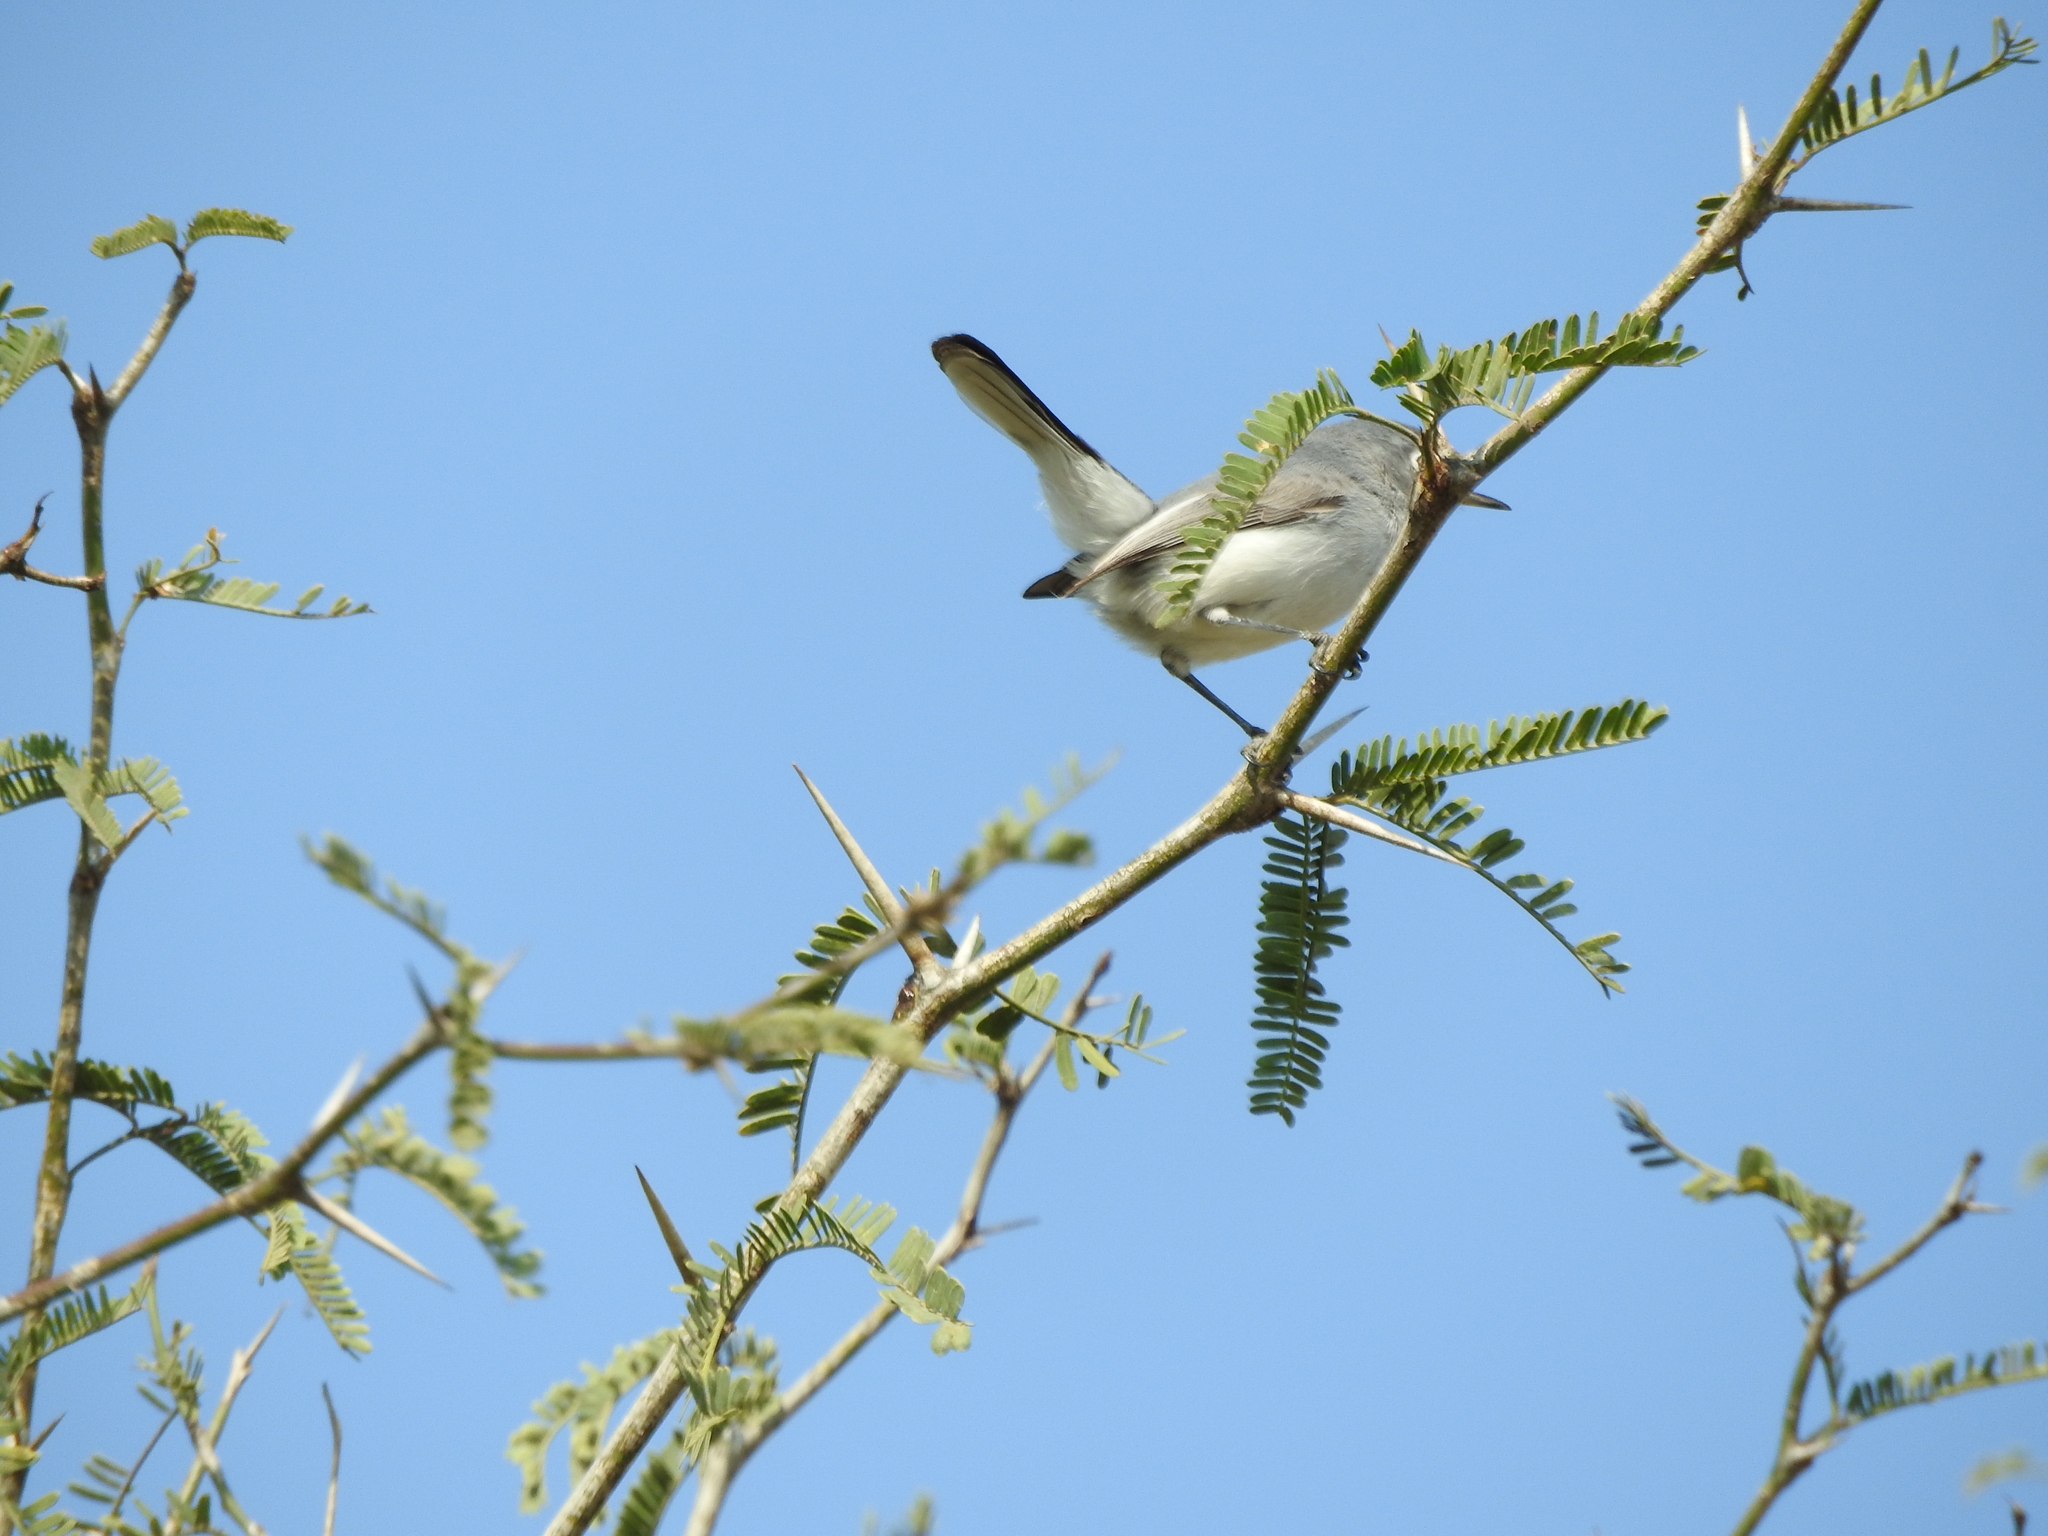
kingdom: Animalia
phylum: Chordata
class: Aves
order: Passeriformes
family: Polioptilidae
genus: Polioptila
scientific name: Polioptila caerulea
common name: Blue-gray gnatcatcher
